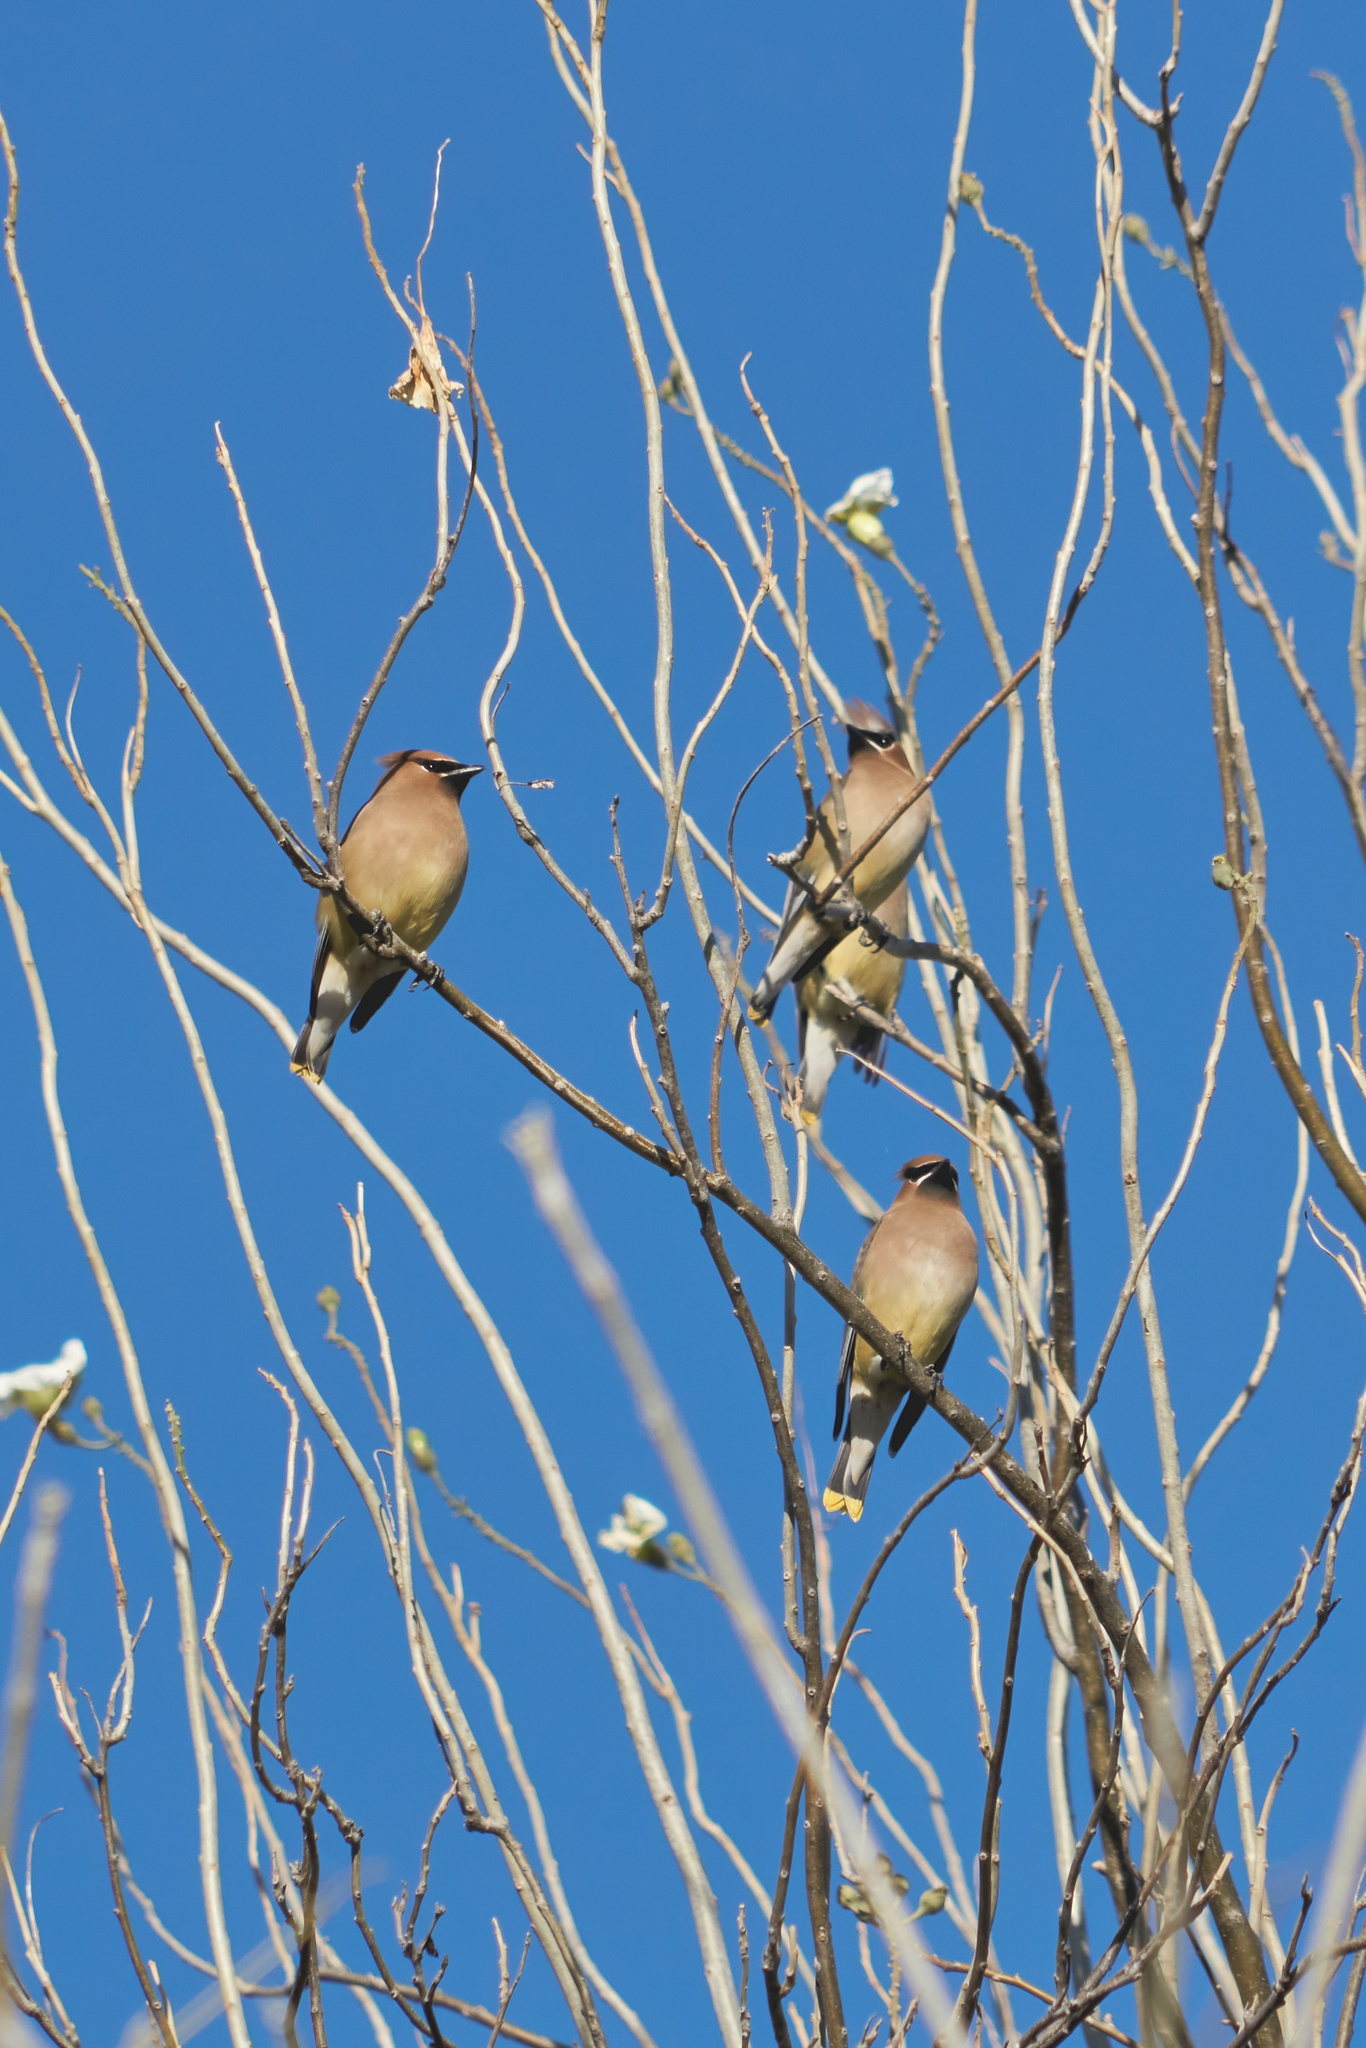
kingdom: Animalia
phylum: Chordata
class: Aves
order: Passeriformes
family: Bombycillidae
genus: Bombycilla
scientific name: Bombycilla cedrorum
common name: Cedar waxwing
